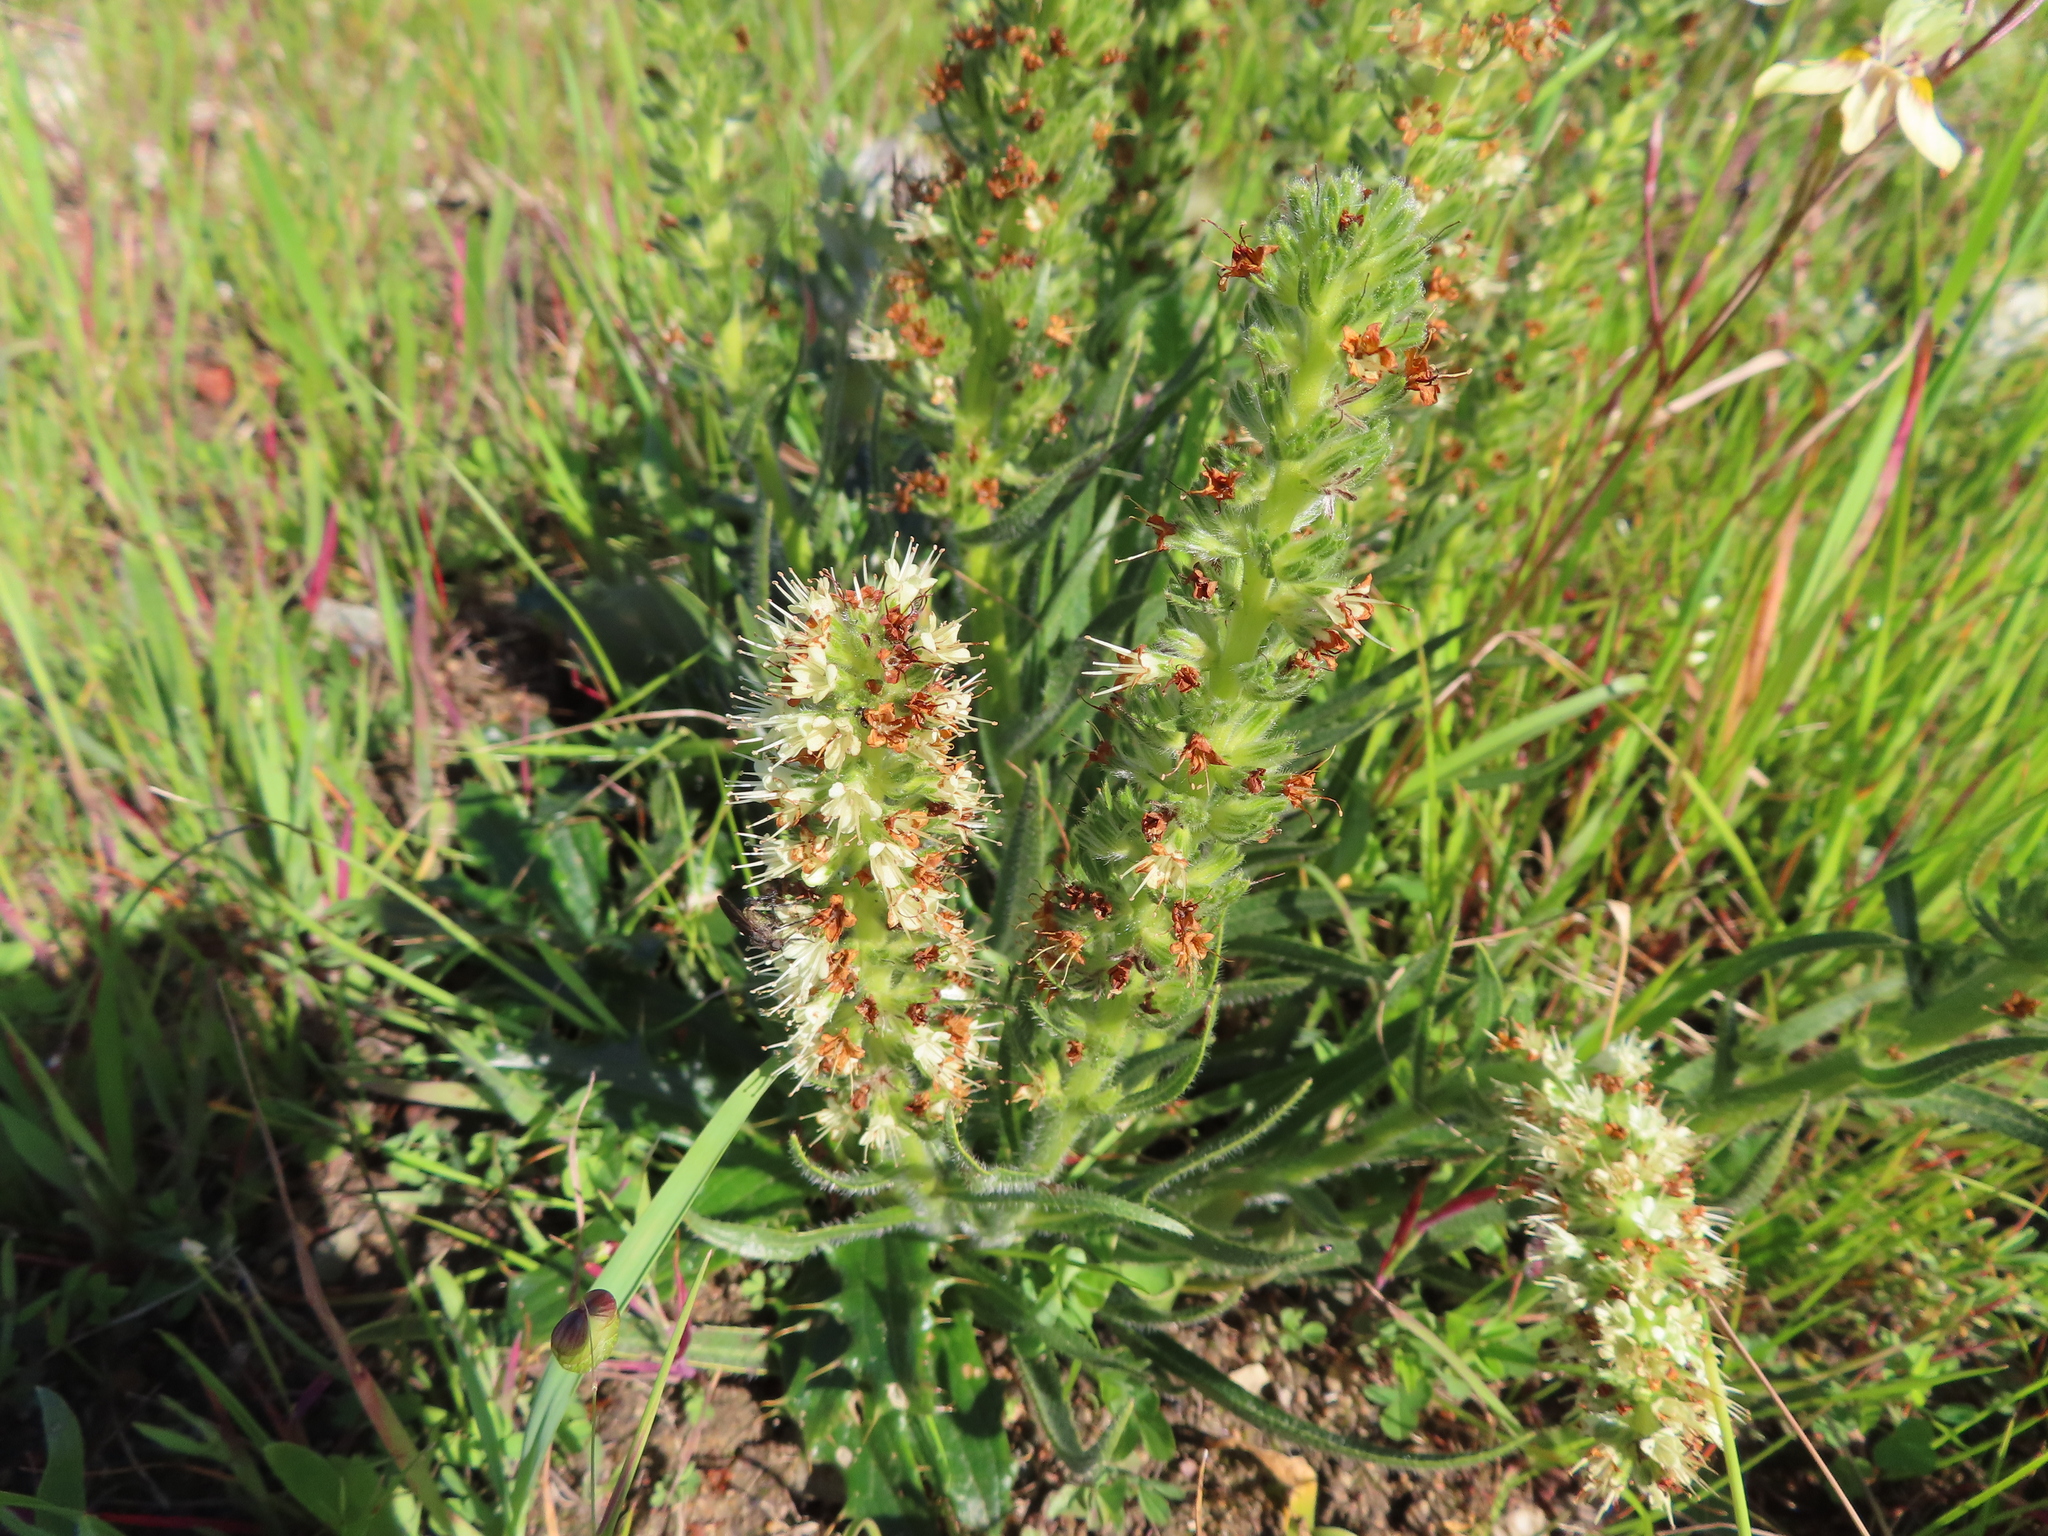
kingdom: Plantae
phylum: Tracheophyta
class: Magnoliopsida
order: Boraginales
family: Boraginaceae
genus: Lobostemon
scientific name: Lobostemon splendens
